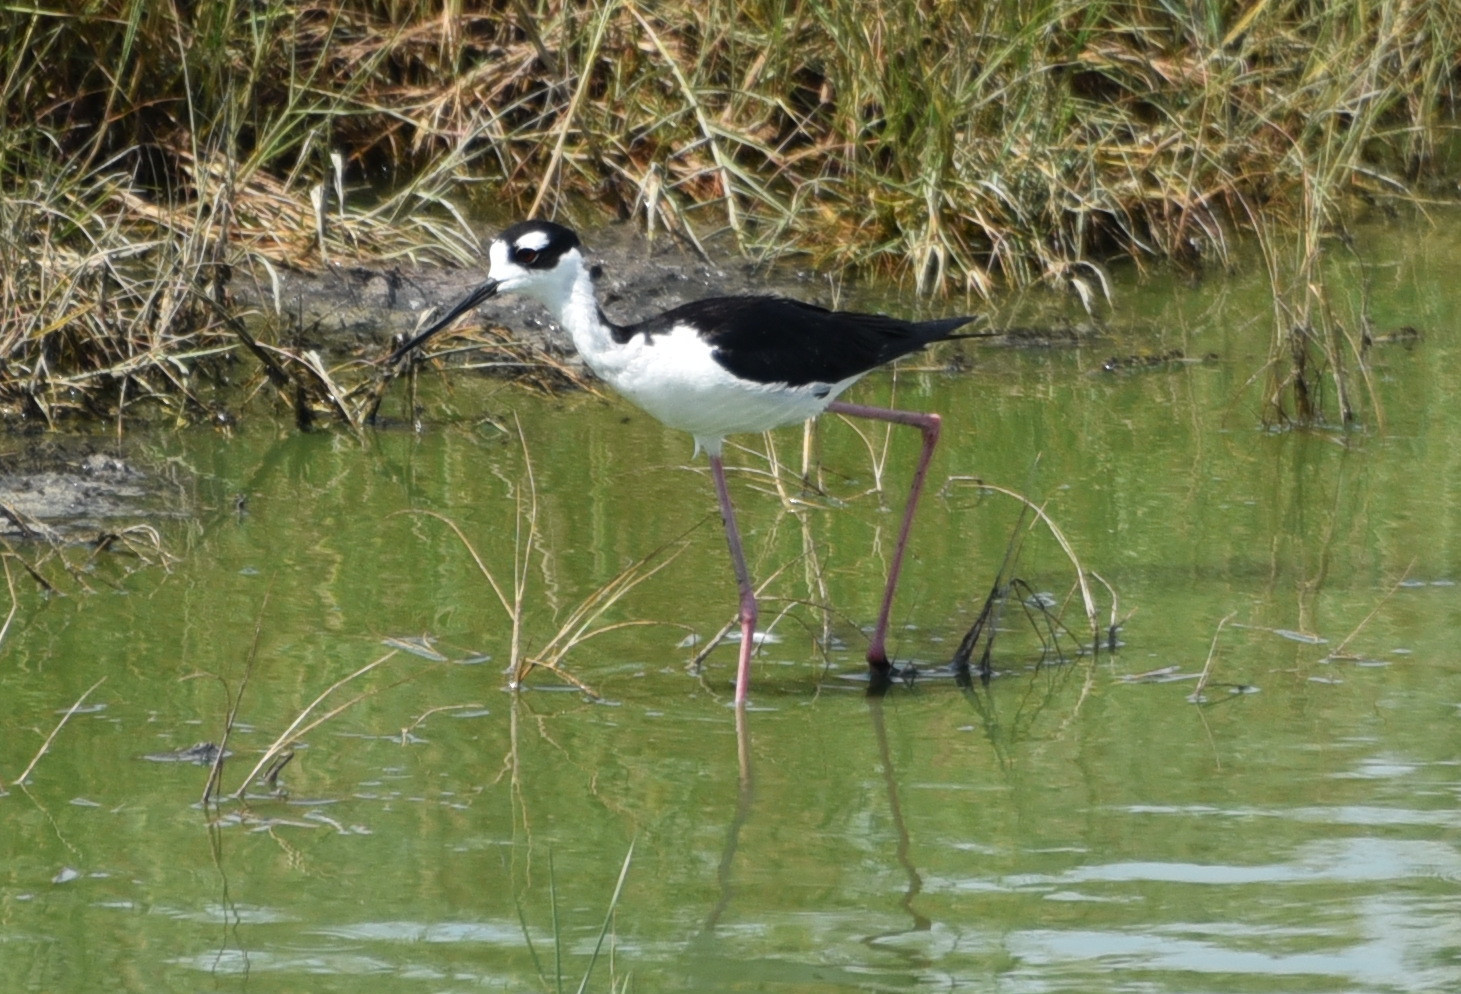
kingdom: Animalia
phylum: Chordata
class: Aves
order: Charadriiformes
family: Recurvirostridae
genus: Himantopus
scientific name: Himantopus mexicanus
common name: Black-necked stilt
